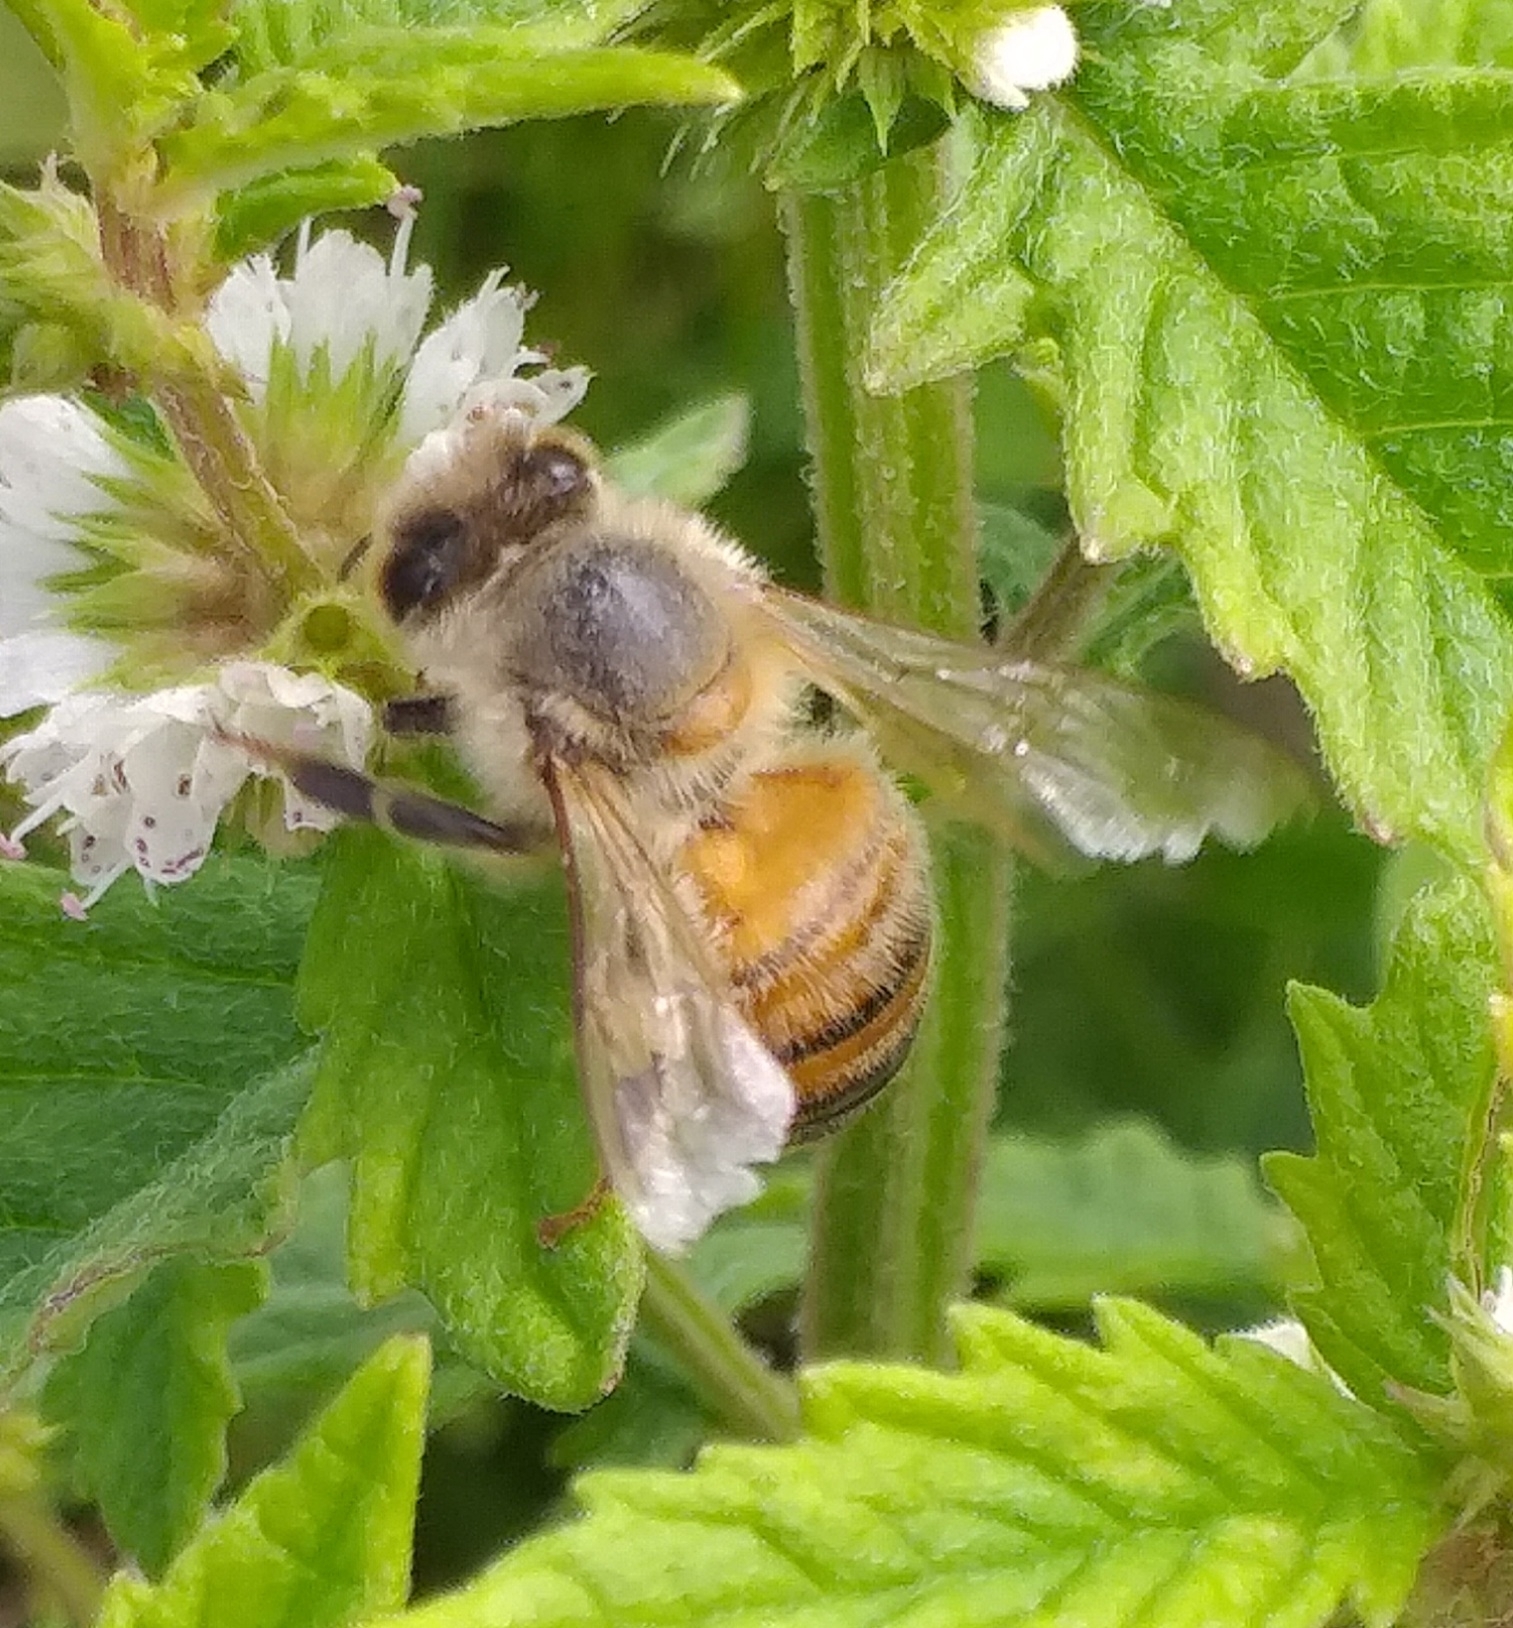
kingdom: Animalia
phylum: Arthropoda
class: Insecta
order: Hymenoptera
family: Apidae
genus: Apis
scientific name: Apis mellifera
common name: Honey bee
